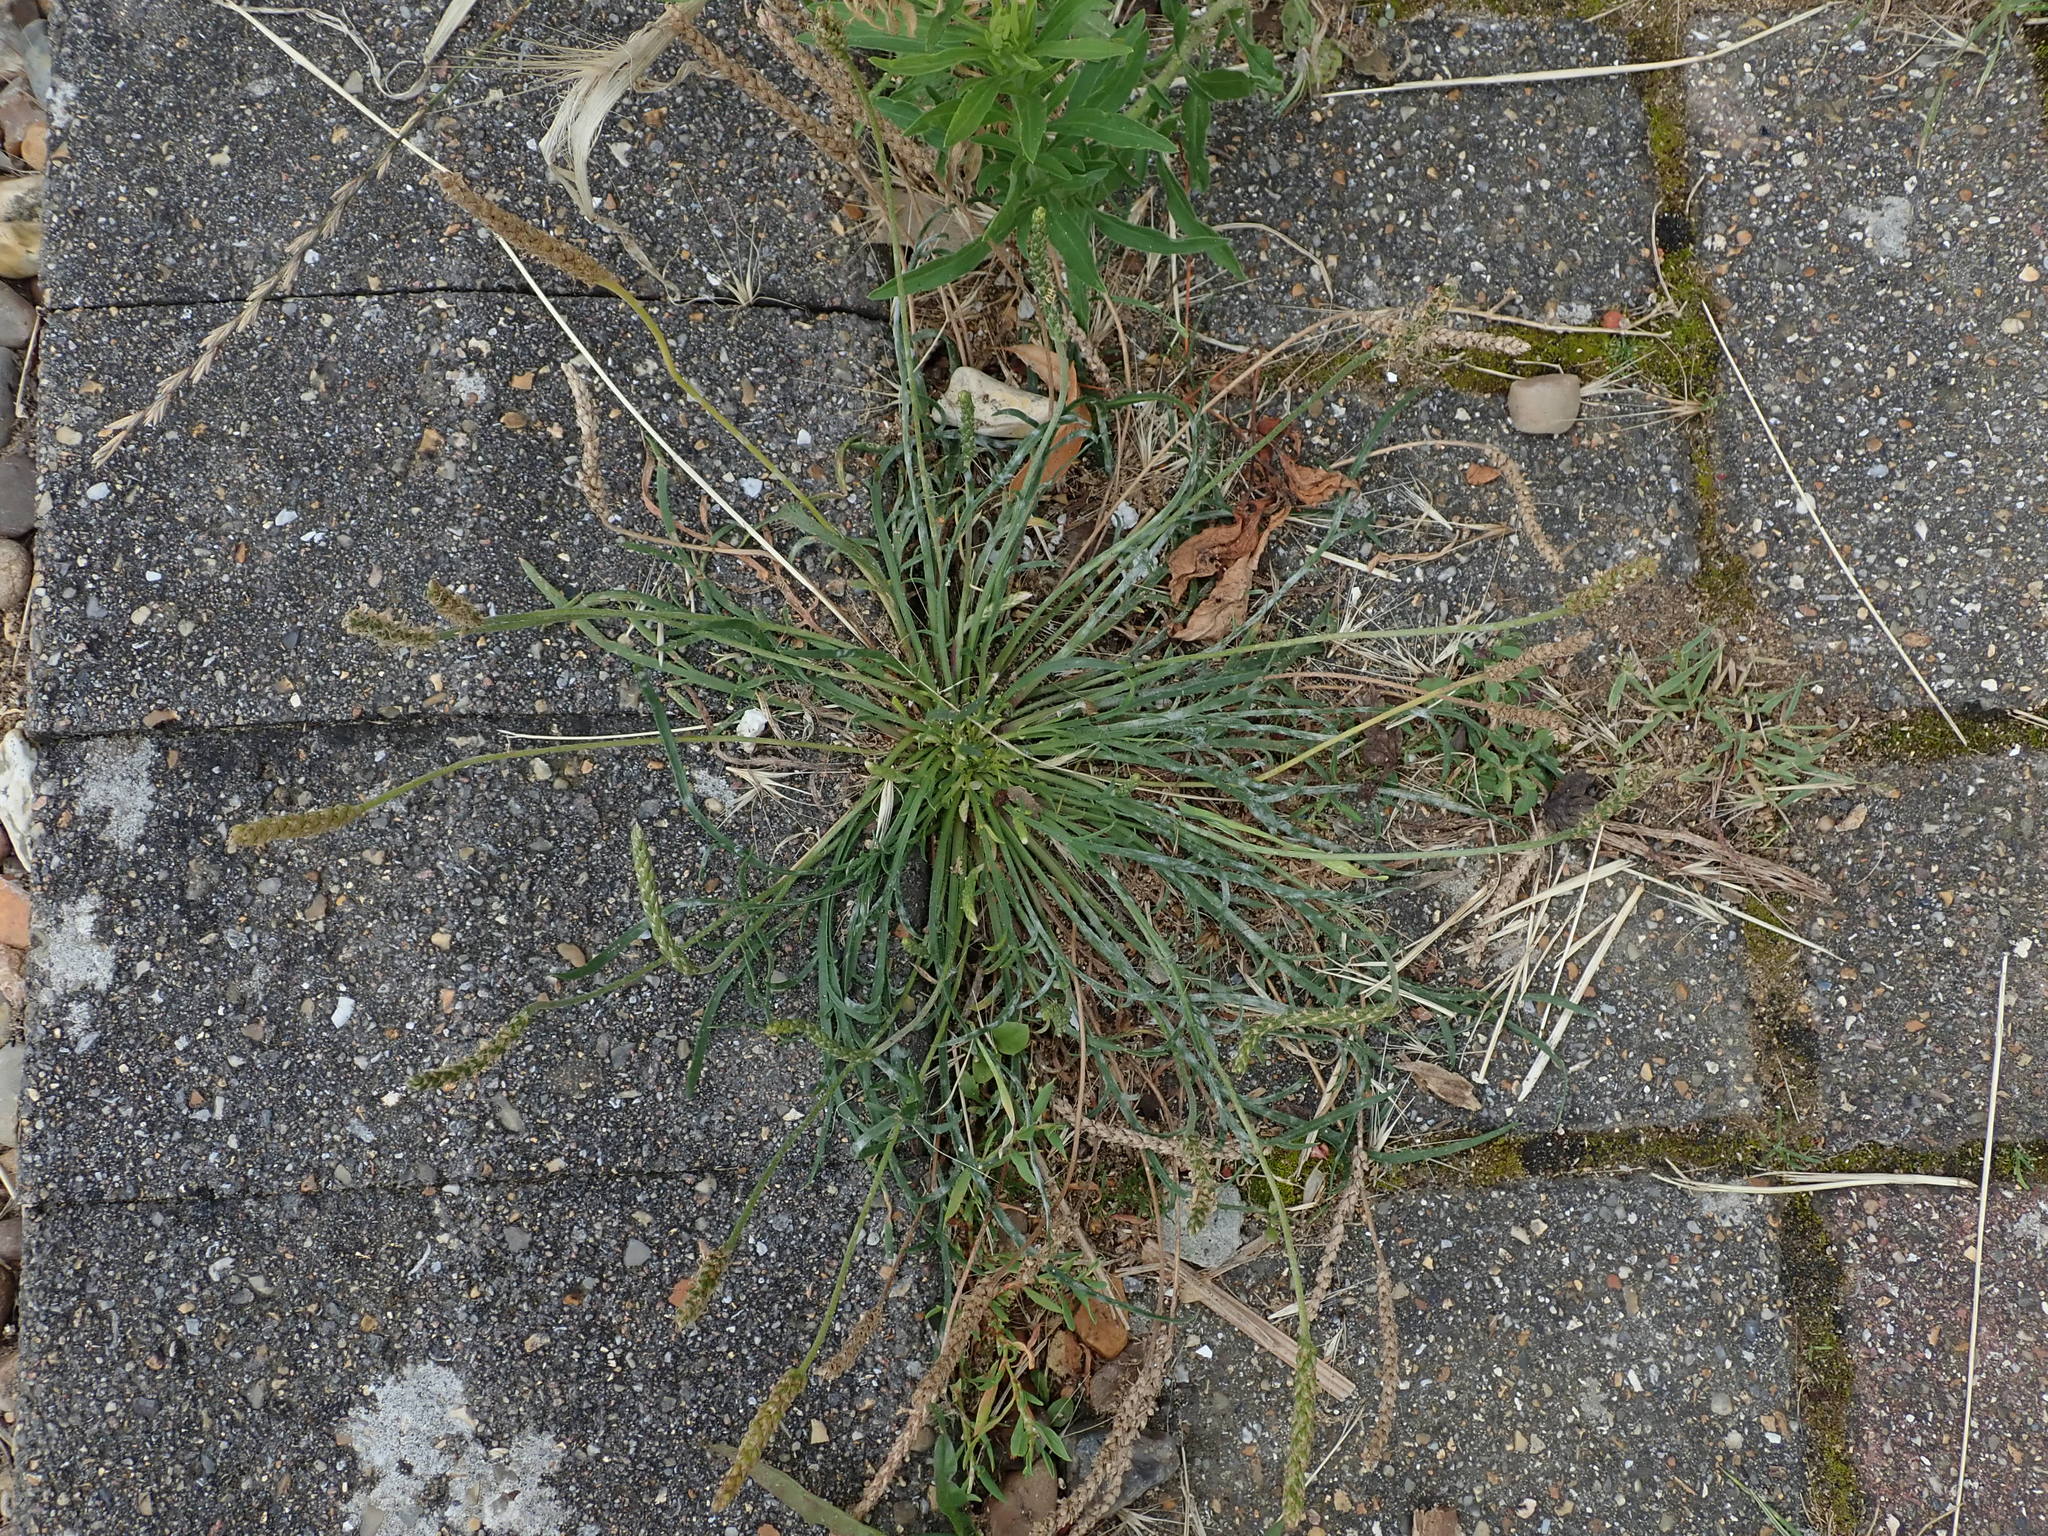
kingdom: Plantae
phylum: Tracheophyta
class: Magnoliopsida
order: Lamiales
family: Plantaginaceae
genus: Plantago
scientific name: Plantago coronopus
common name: Buck's-horn plantain
